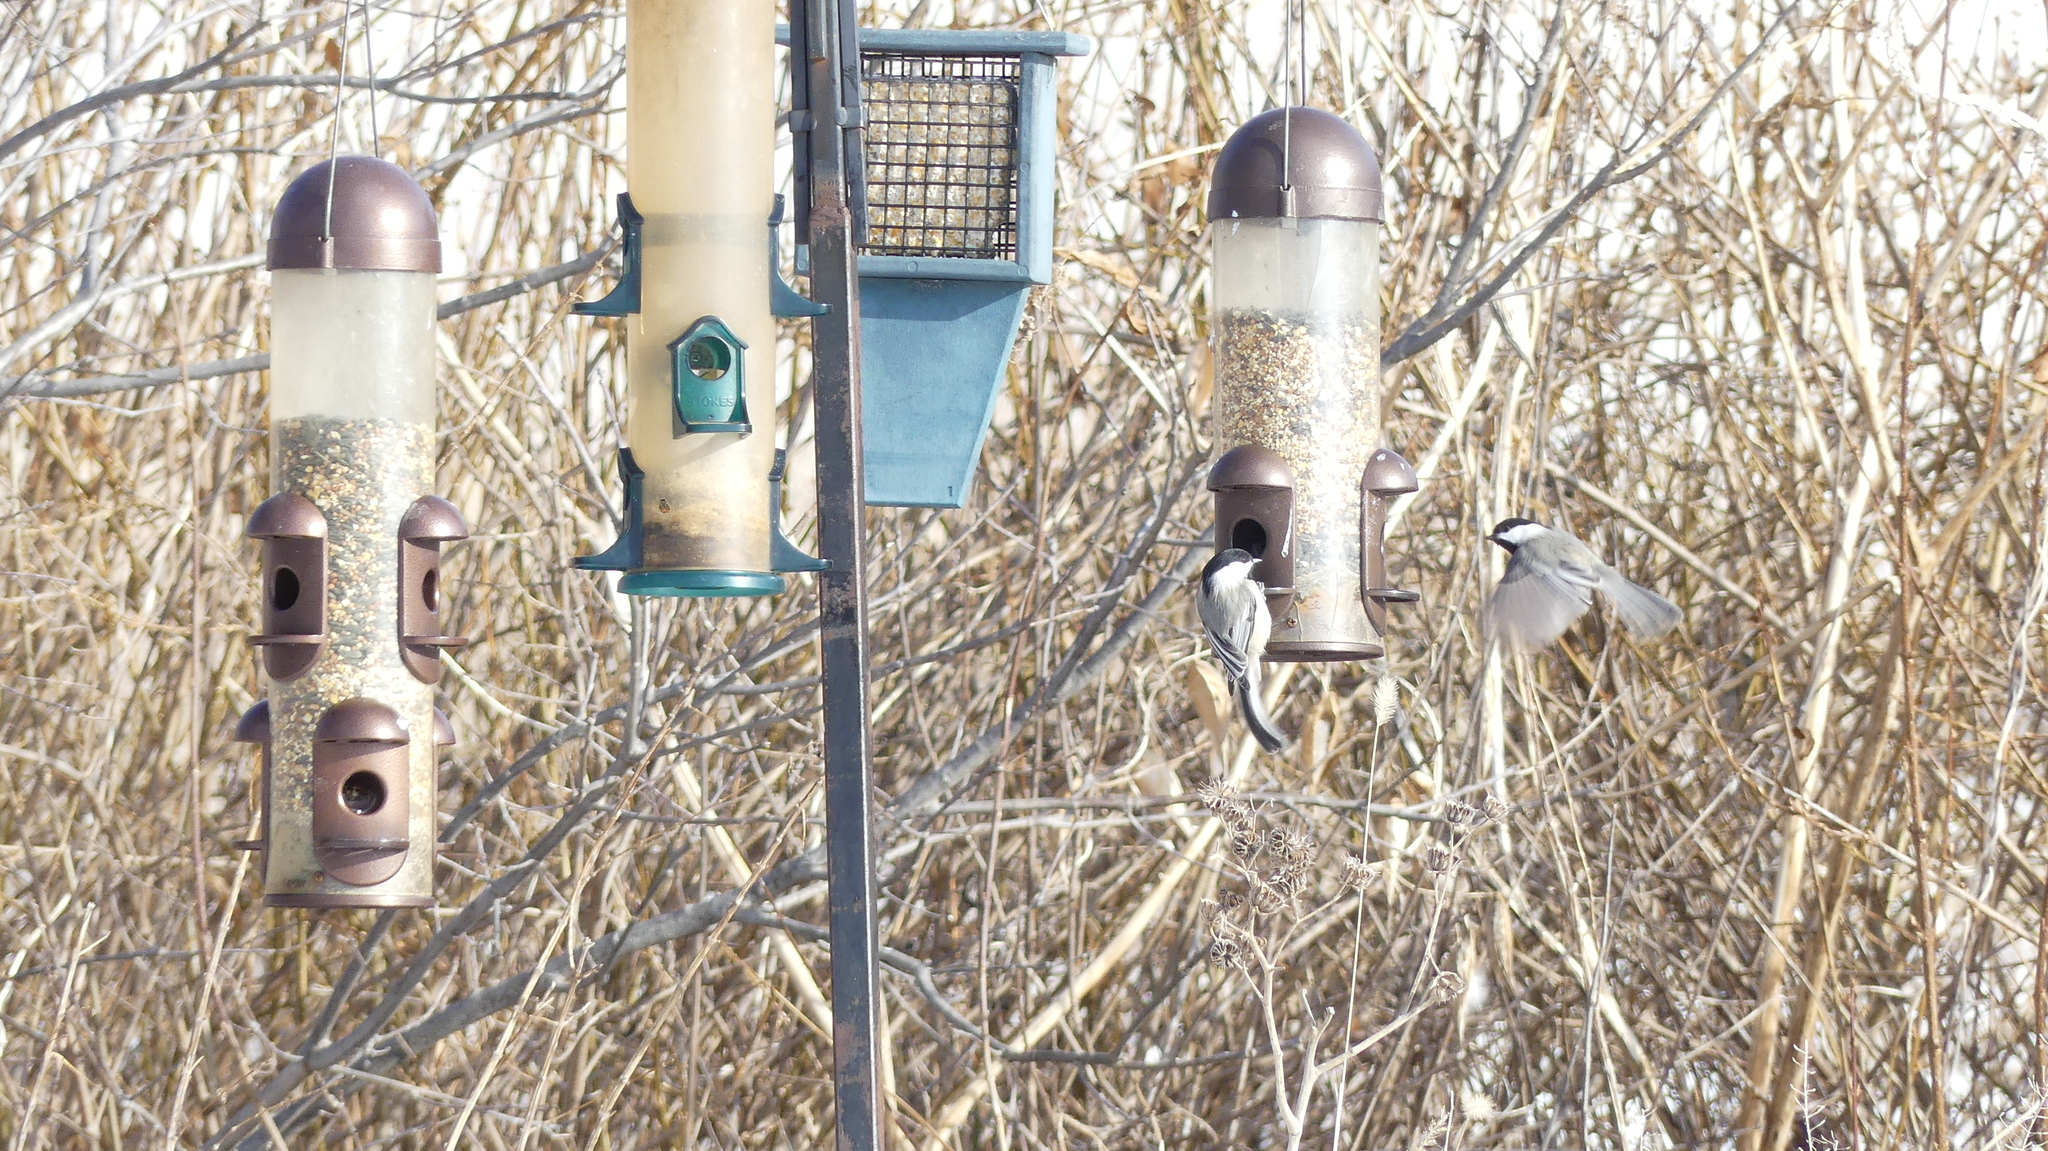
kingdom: Animalia
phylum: Chordata
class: Aves
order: Passeriformes
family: Paridae
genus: Poecile
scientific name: Poecile atricapillus
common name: Black-capped chickadee
